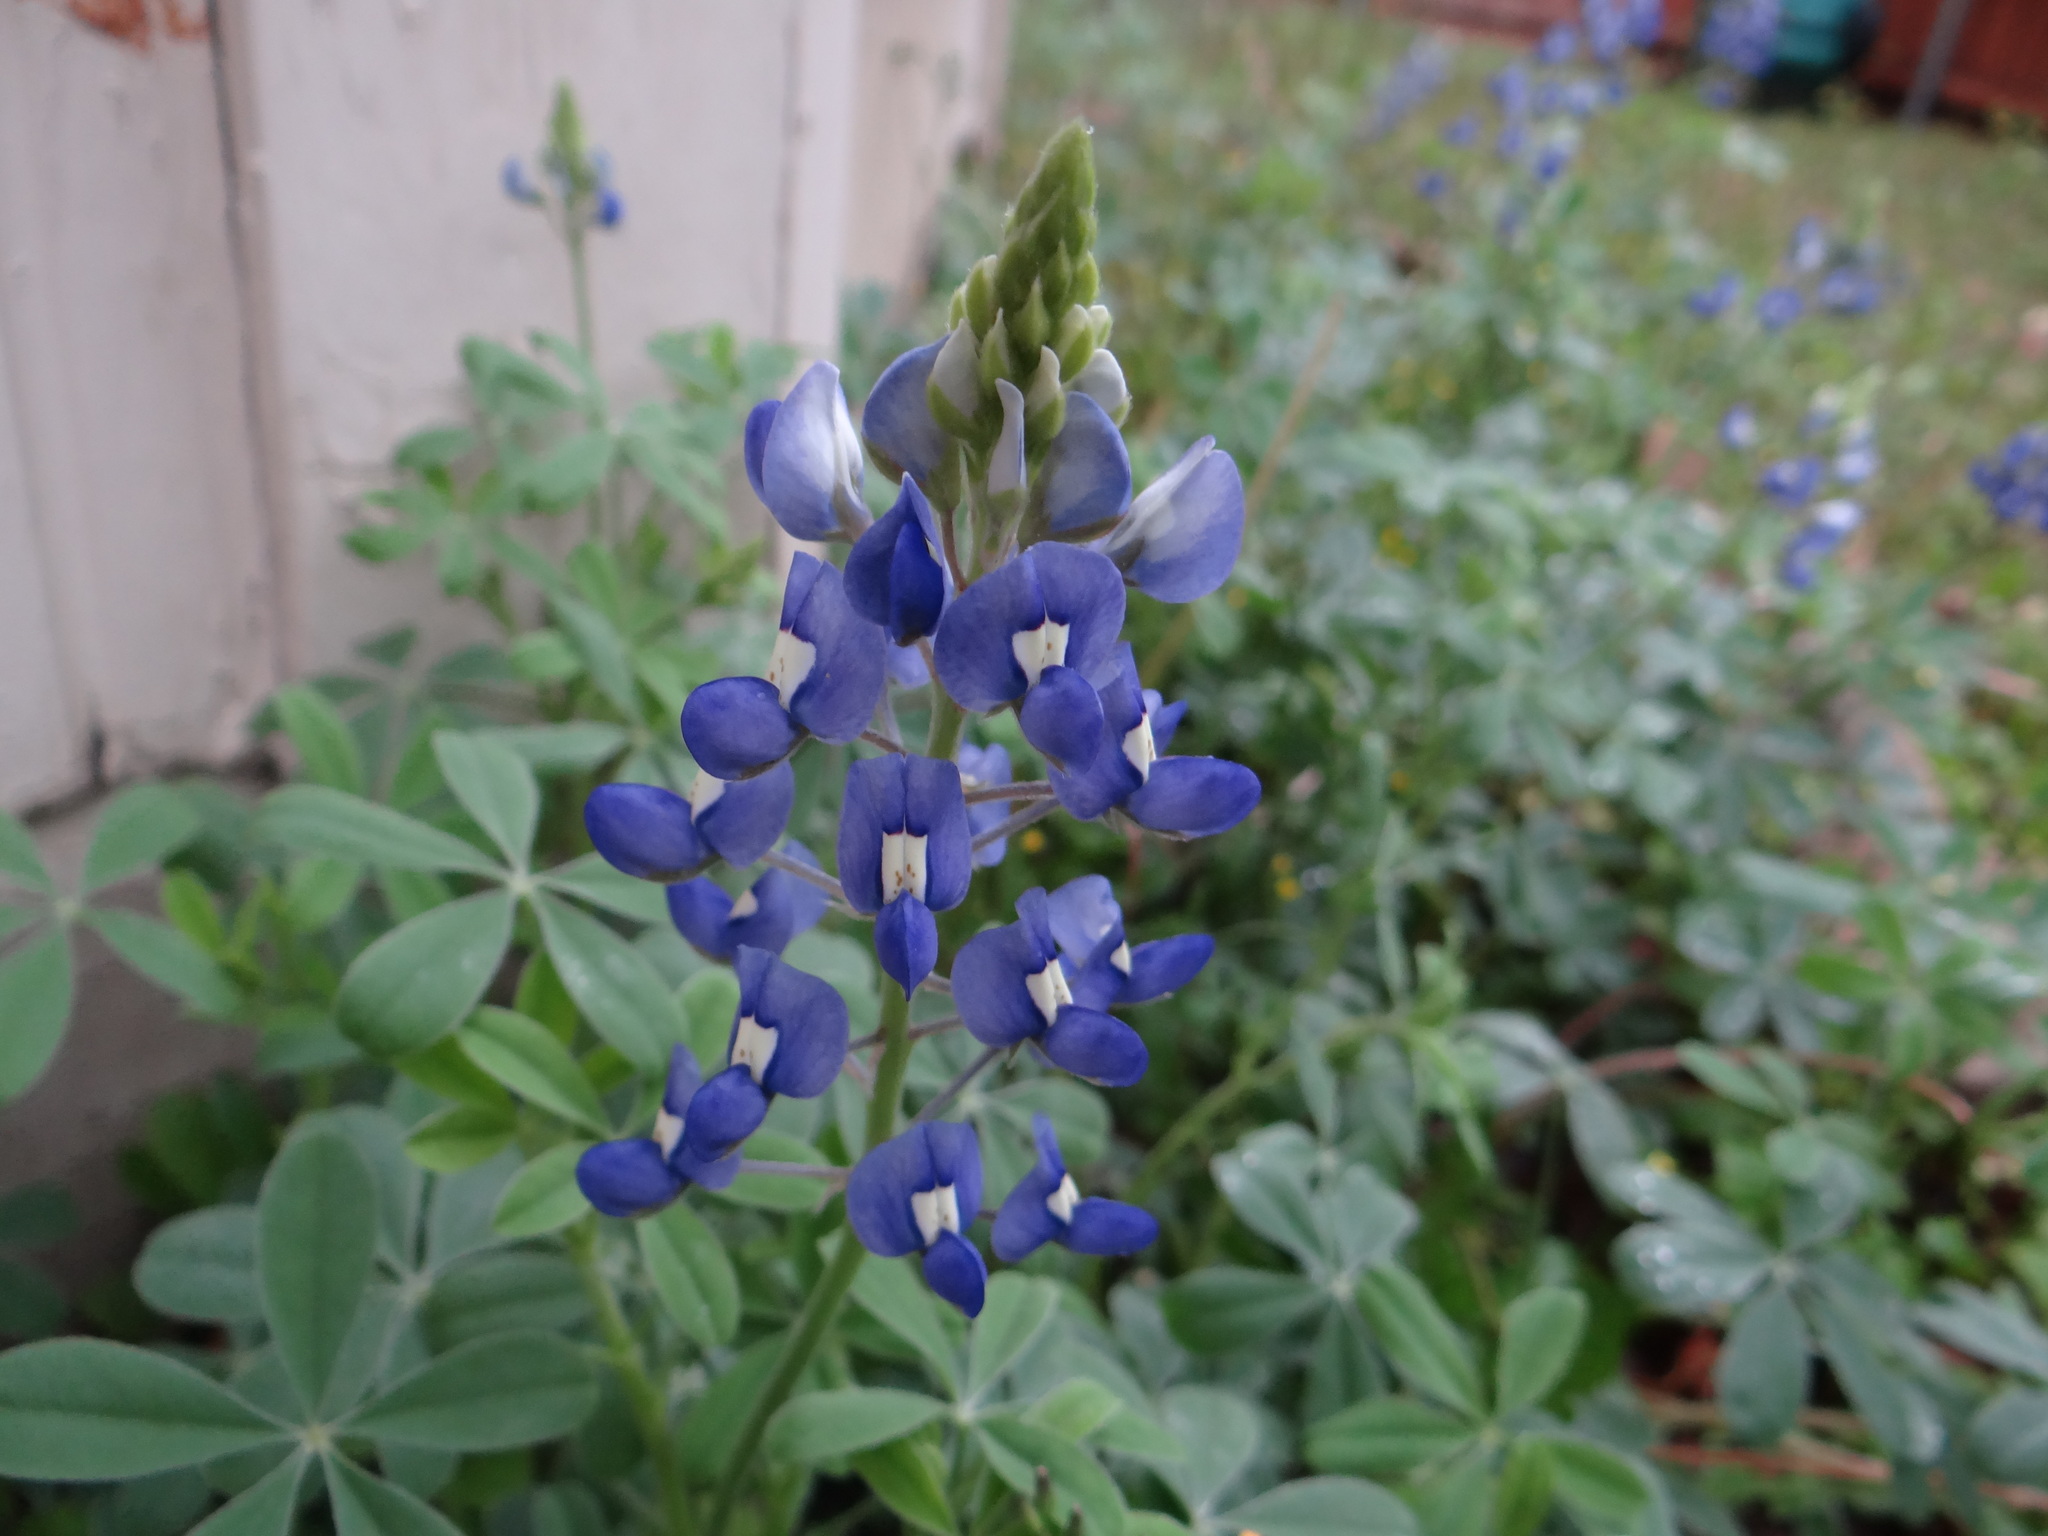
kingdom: Plantae
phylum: Tracheophyta
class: Magnoliopsida
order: Fabales
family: Fabaceae
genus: Lupinus
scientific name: Lupinus texensis
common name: Texas bluebonnet
